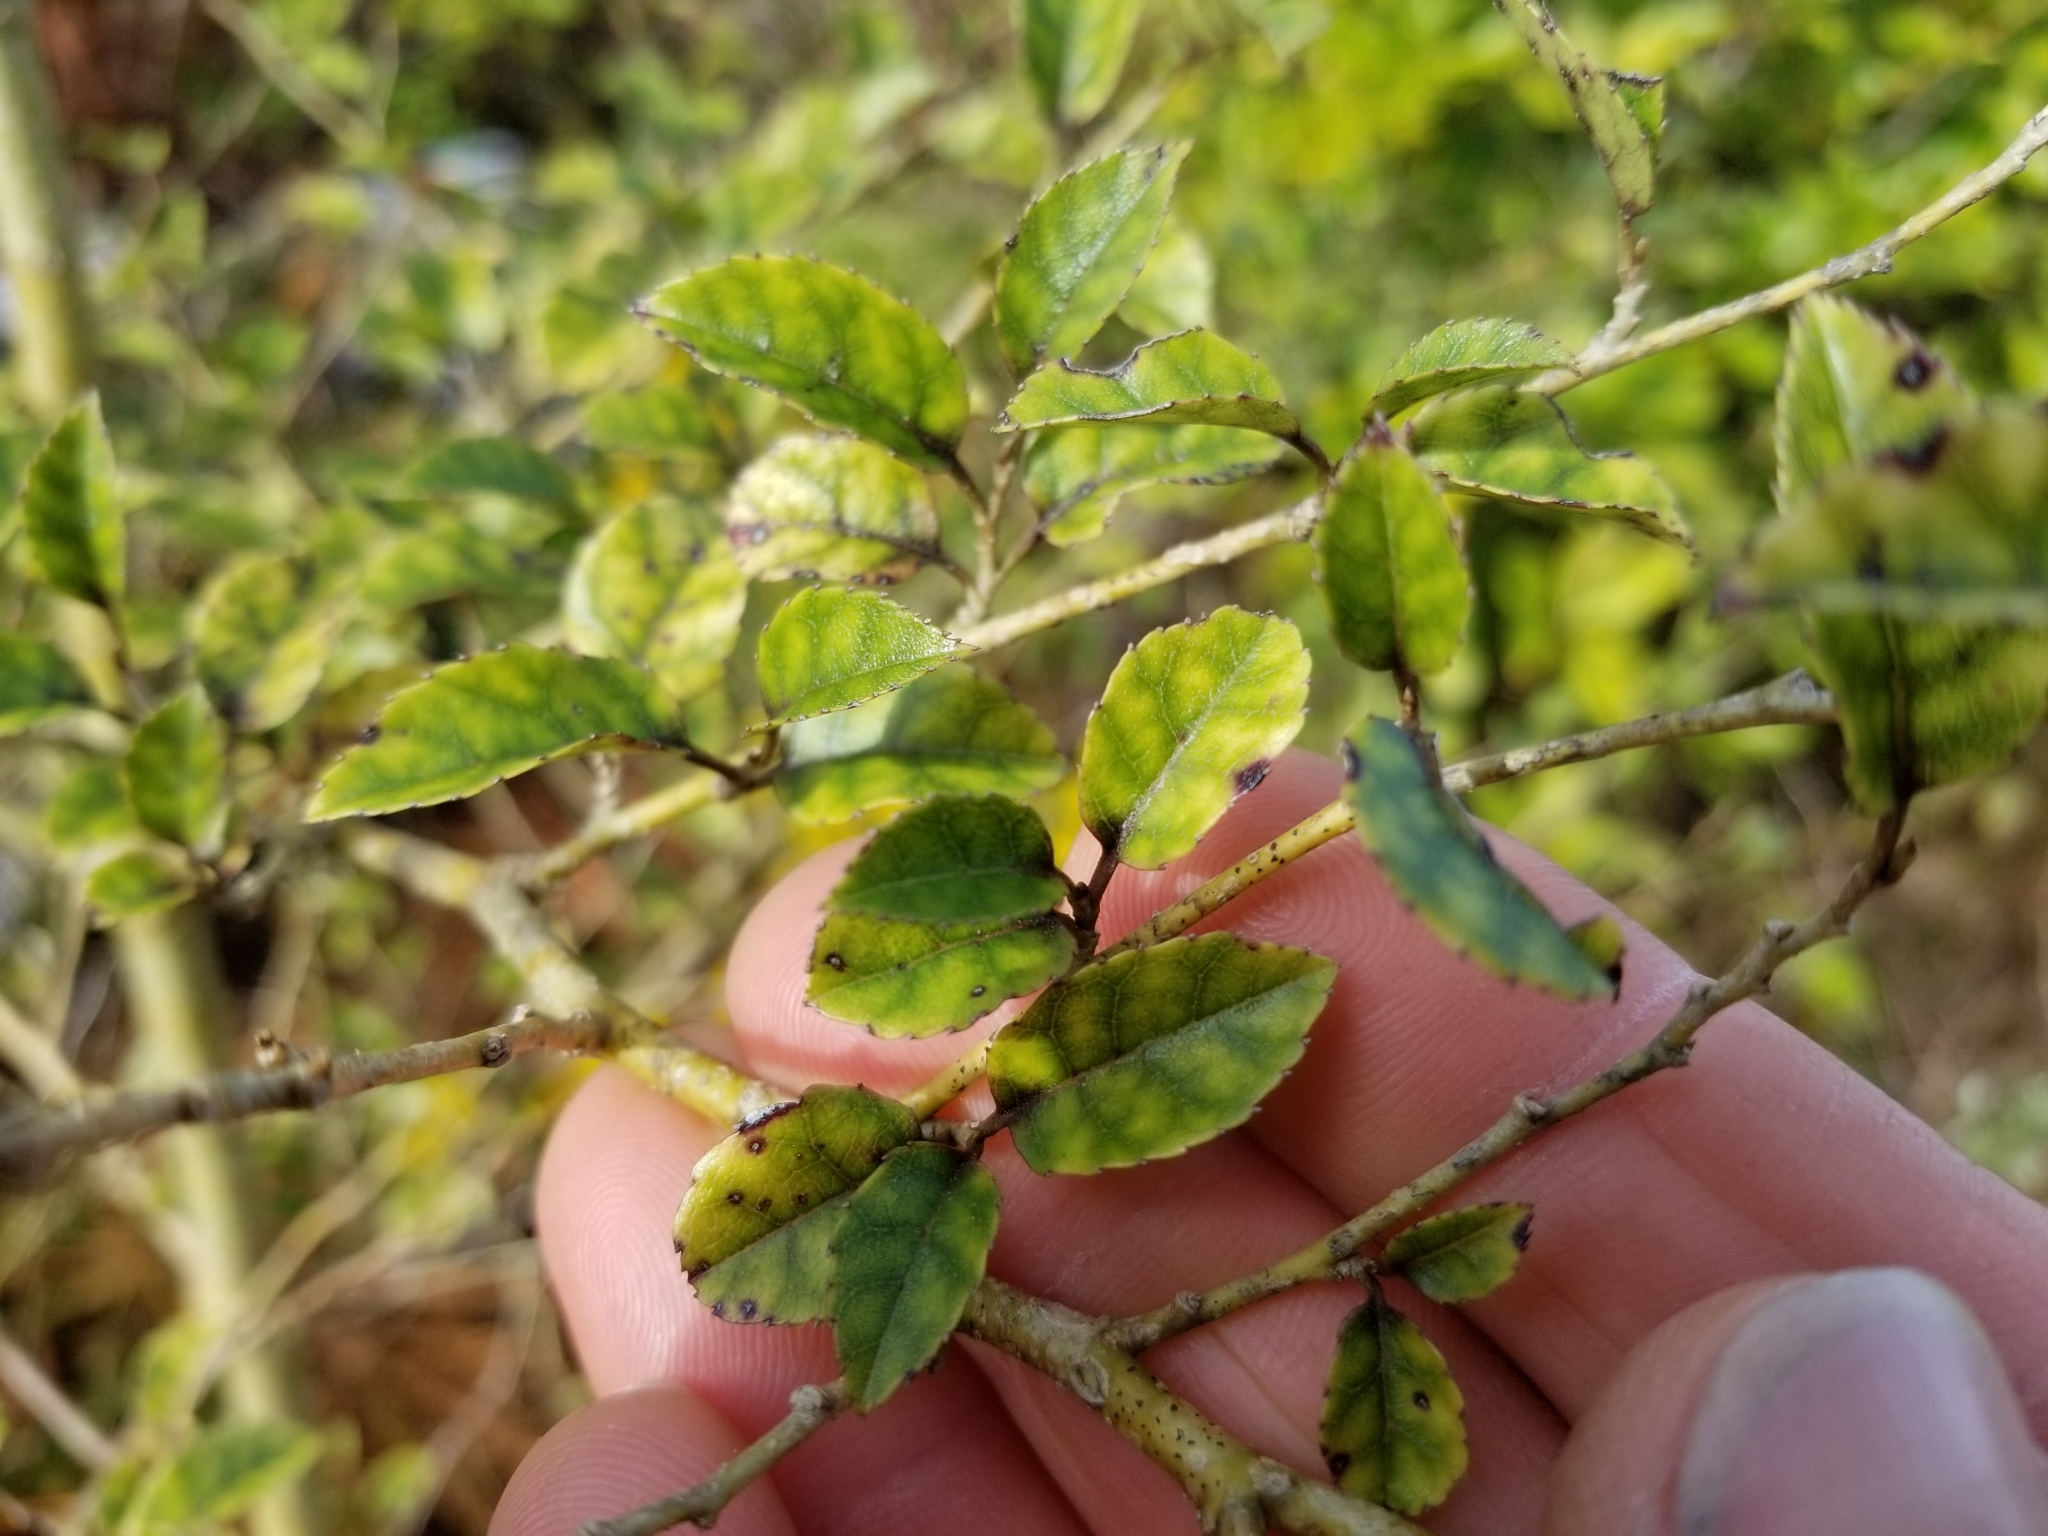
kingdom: Plantae
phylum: Tracheophyta
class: Magnoliopsida
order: Asterales
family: Rousseaceae
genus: Carpodetus
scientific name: Carpodetus serratus
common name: White mapau
